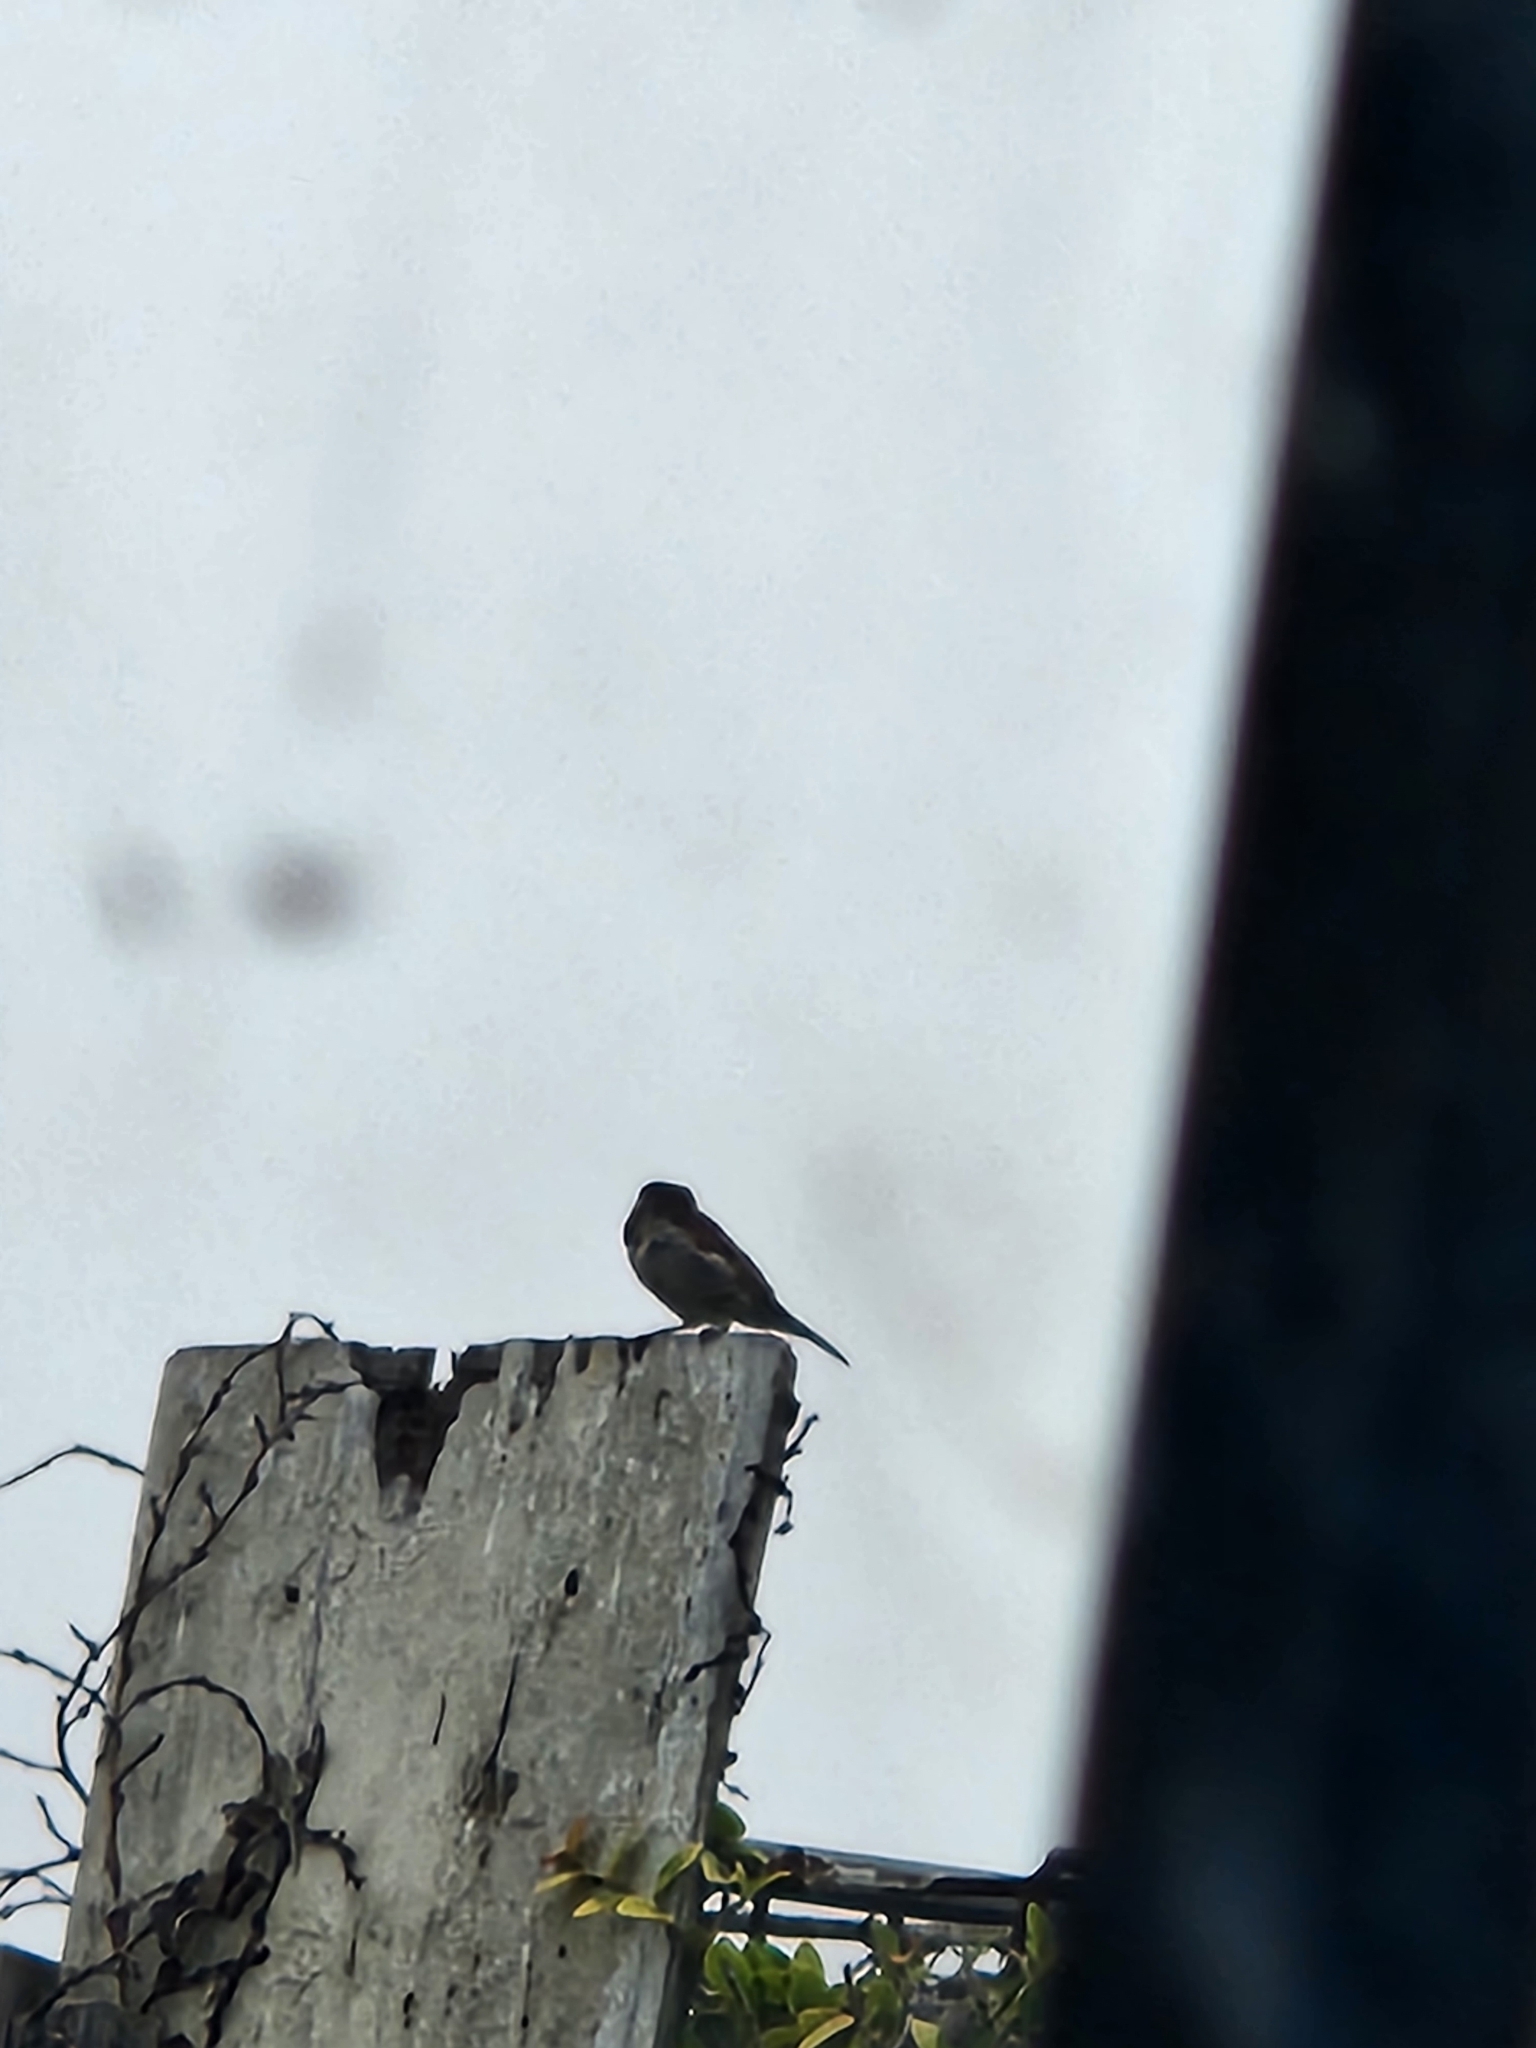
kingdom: Animalia
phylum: Chordata
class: Aves
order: Passeriformes
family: Passeridae
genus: Passer
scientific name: Passer domesticus
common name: House sparrow
